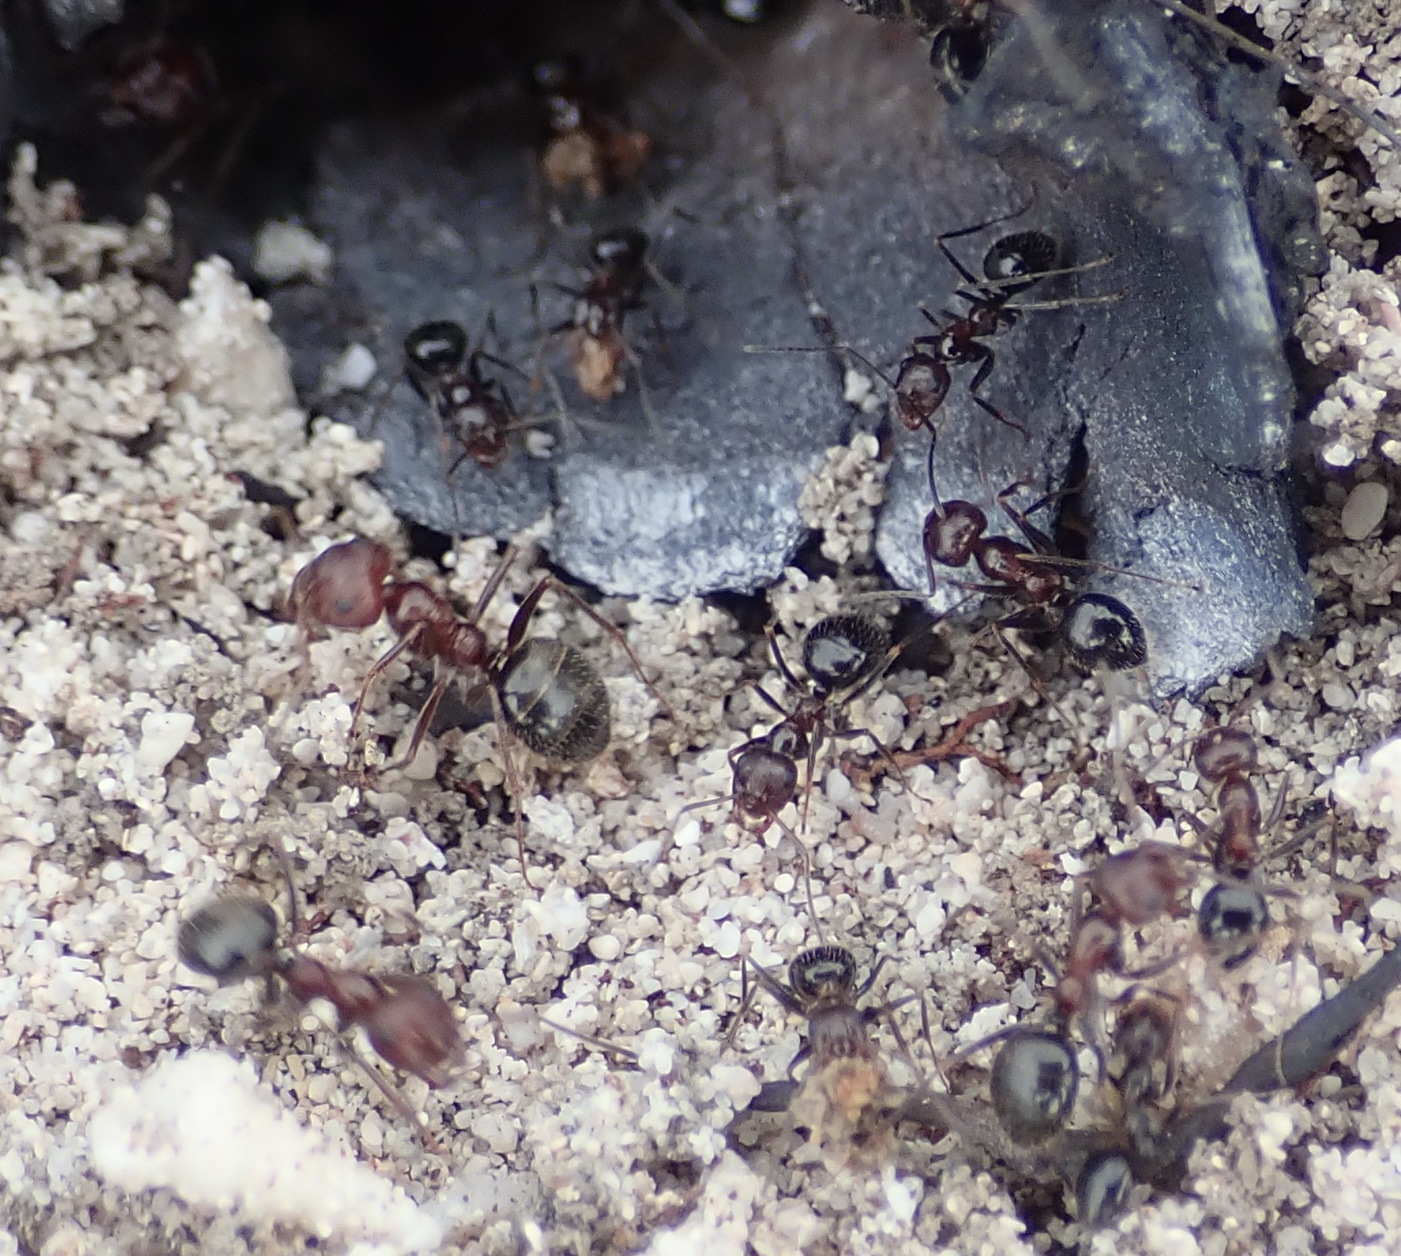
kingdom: Animalia
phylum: Arthropoda
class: Insecta
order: Hymenoptera
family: Formicidae
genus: Anoplolepis
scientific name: Anoplolepis steingroeveri
